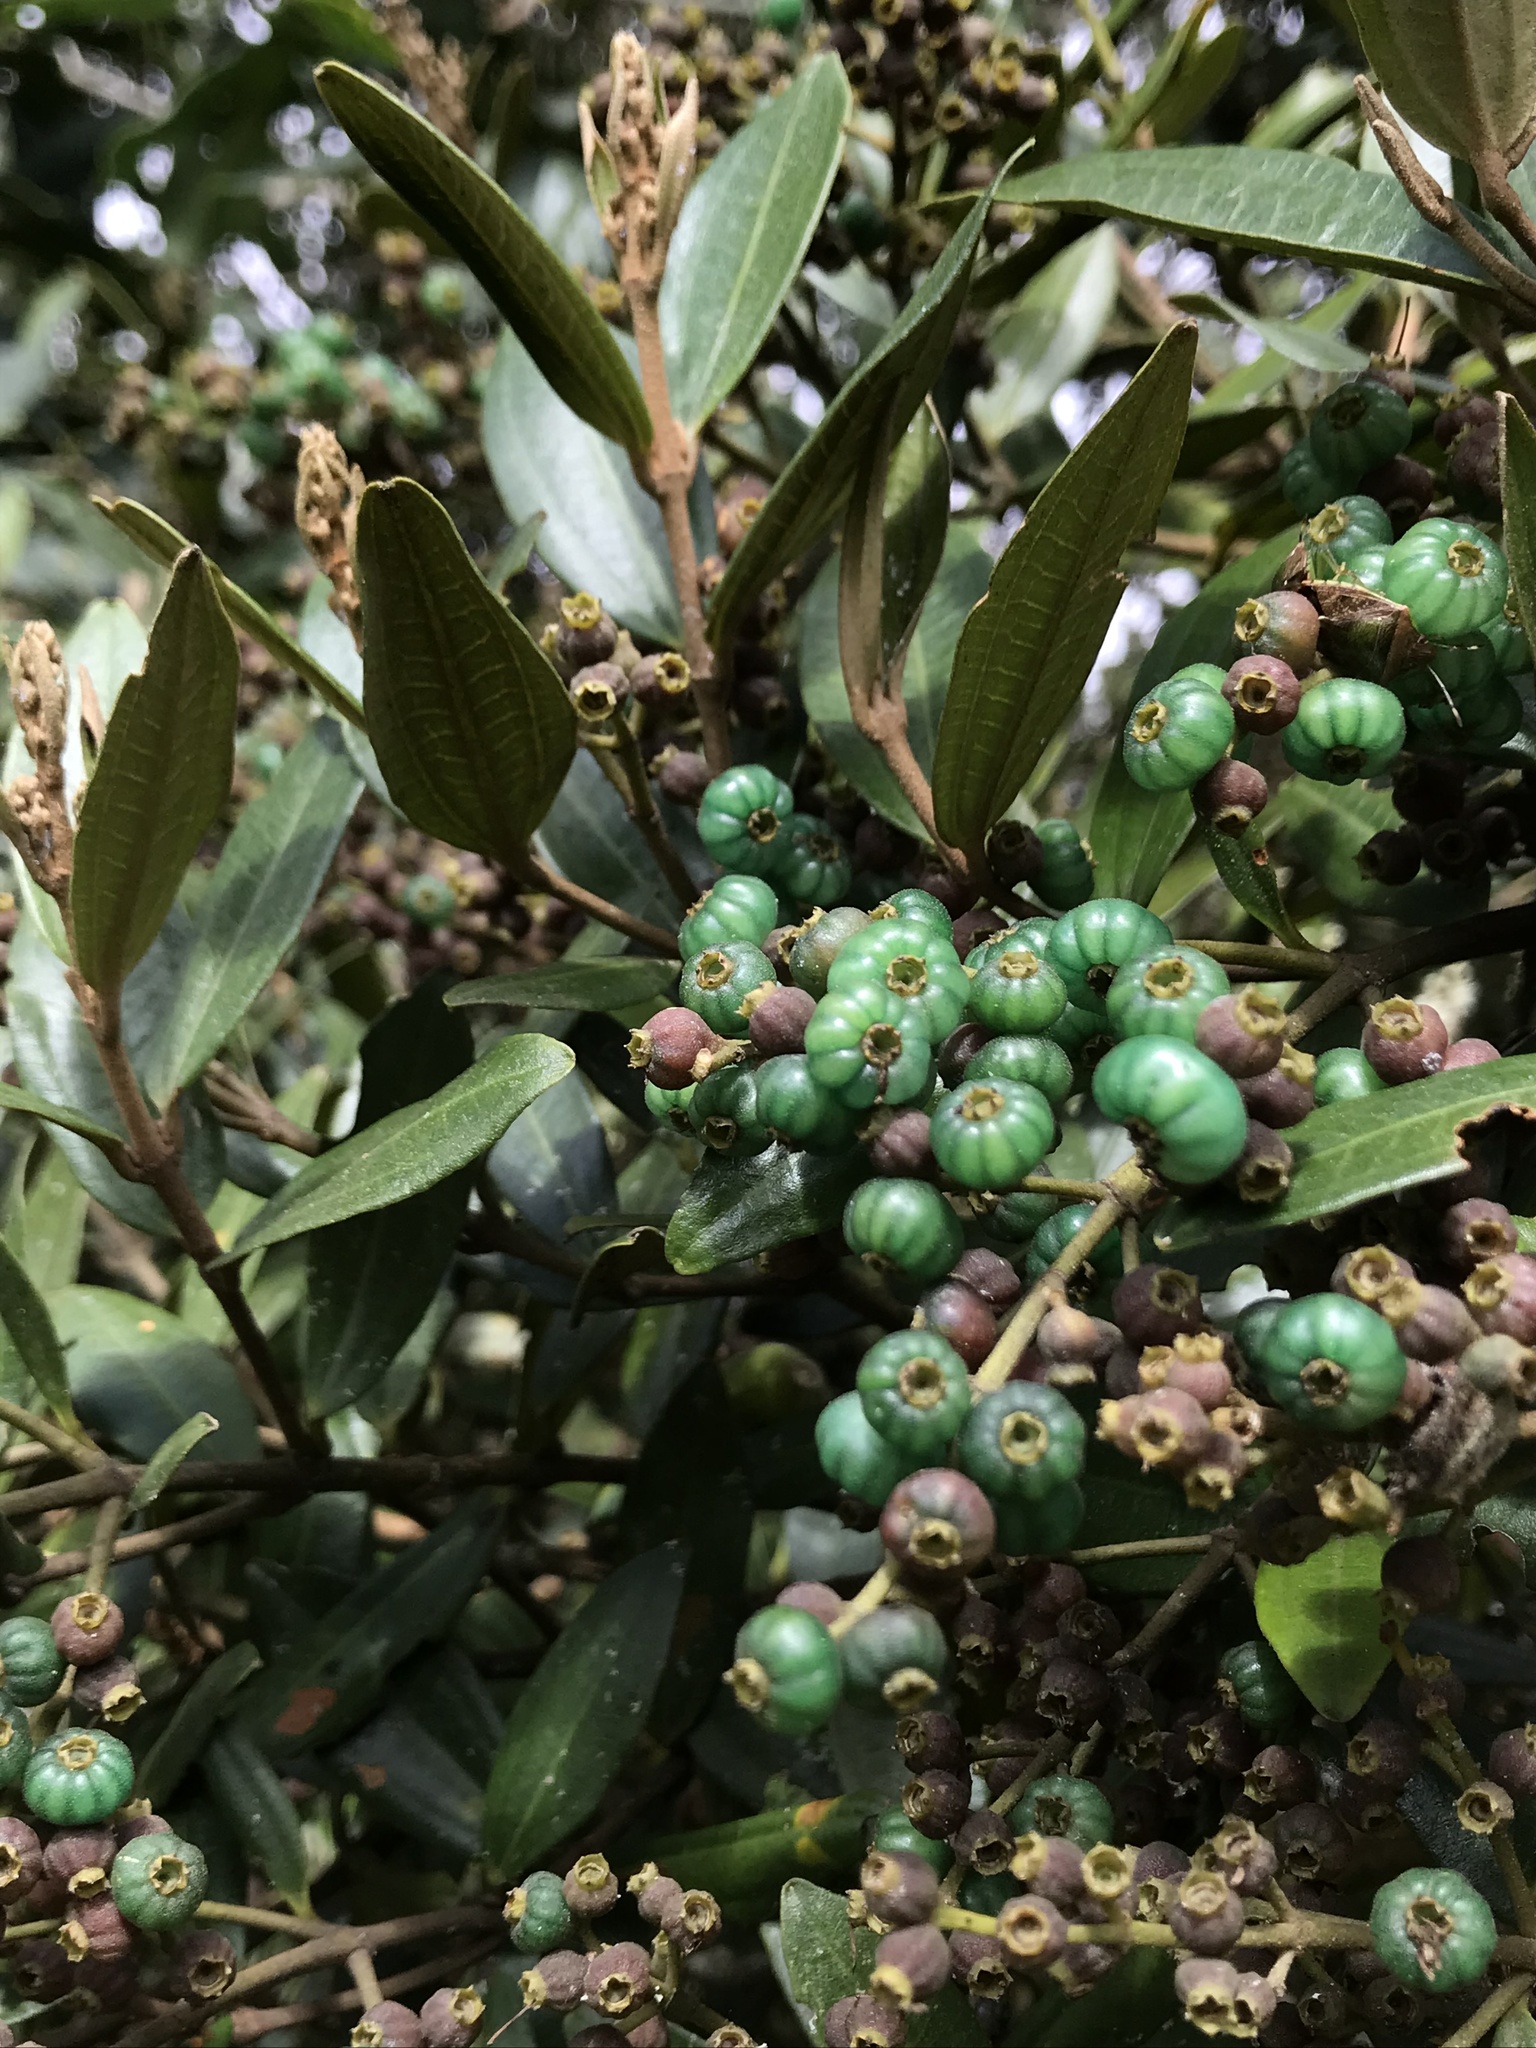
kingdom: Plantae
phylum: Tracheophyta
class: Magnoliopsida
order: Myrtales
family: Melastomataceae
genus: Miconia
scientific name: Miconia squamulosa
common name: Squamulose maya
